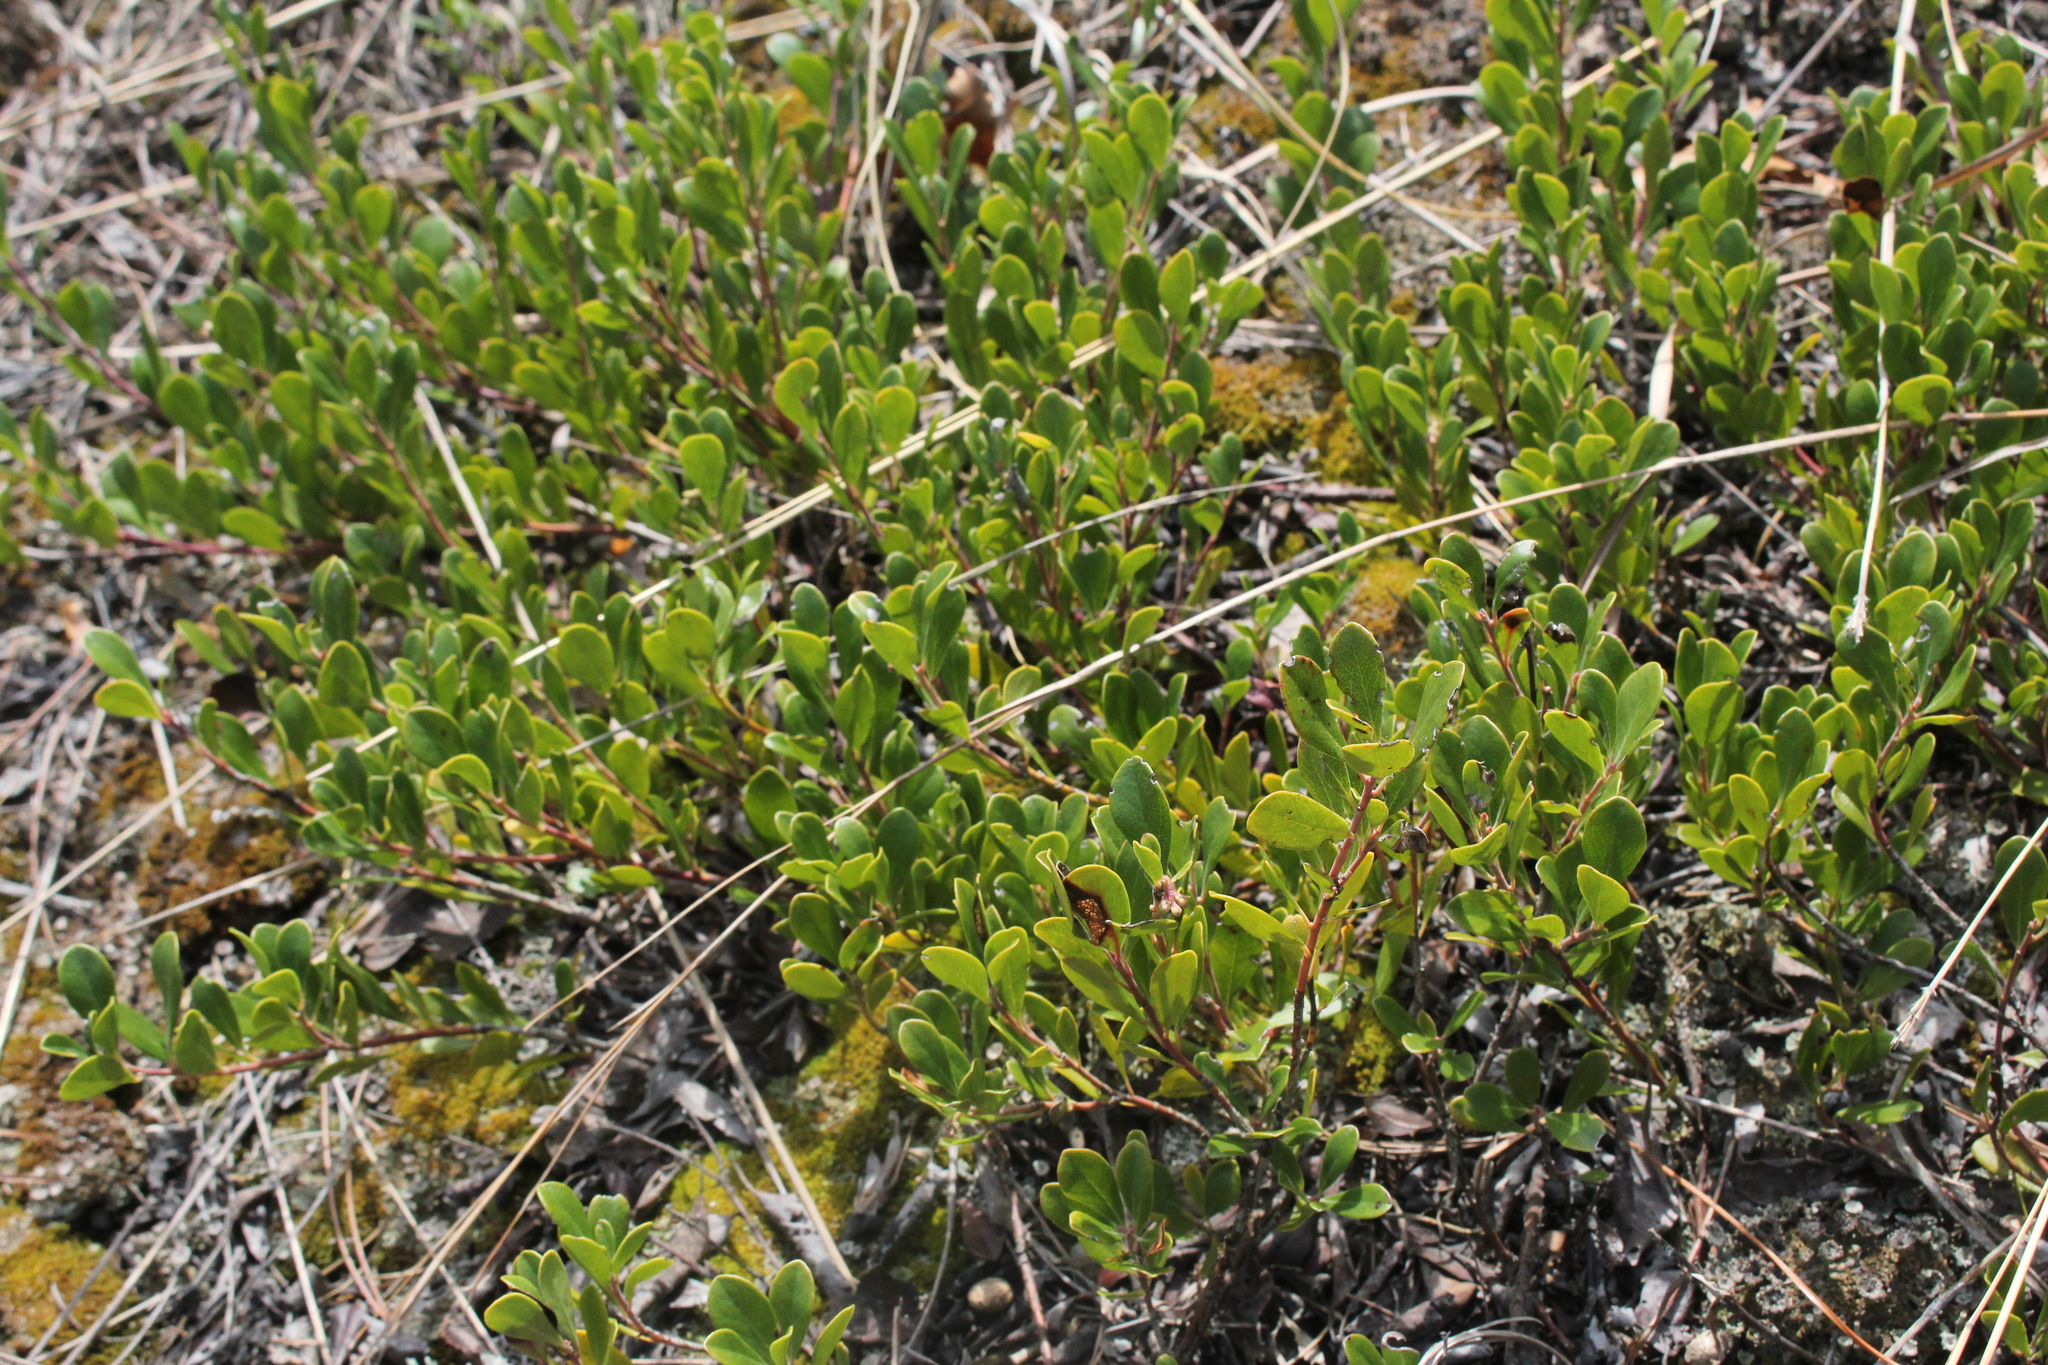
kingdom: Plantae
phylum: Tracheophyta
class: Magnoliopsida
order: Ericales
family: Ericaceae
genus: Arctostaphylos
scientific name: Arctostaphylos uva-ursi
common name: Bearberry
